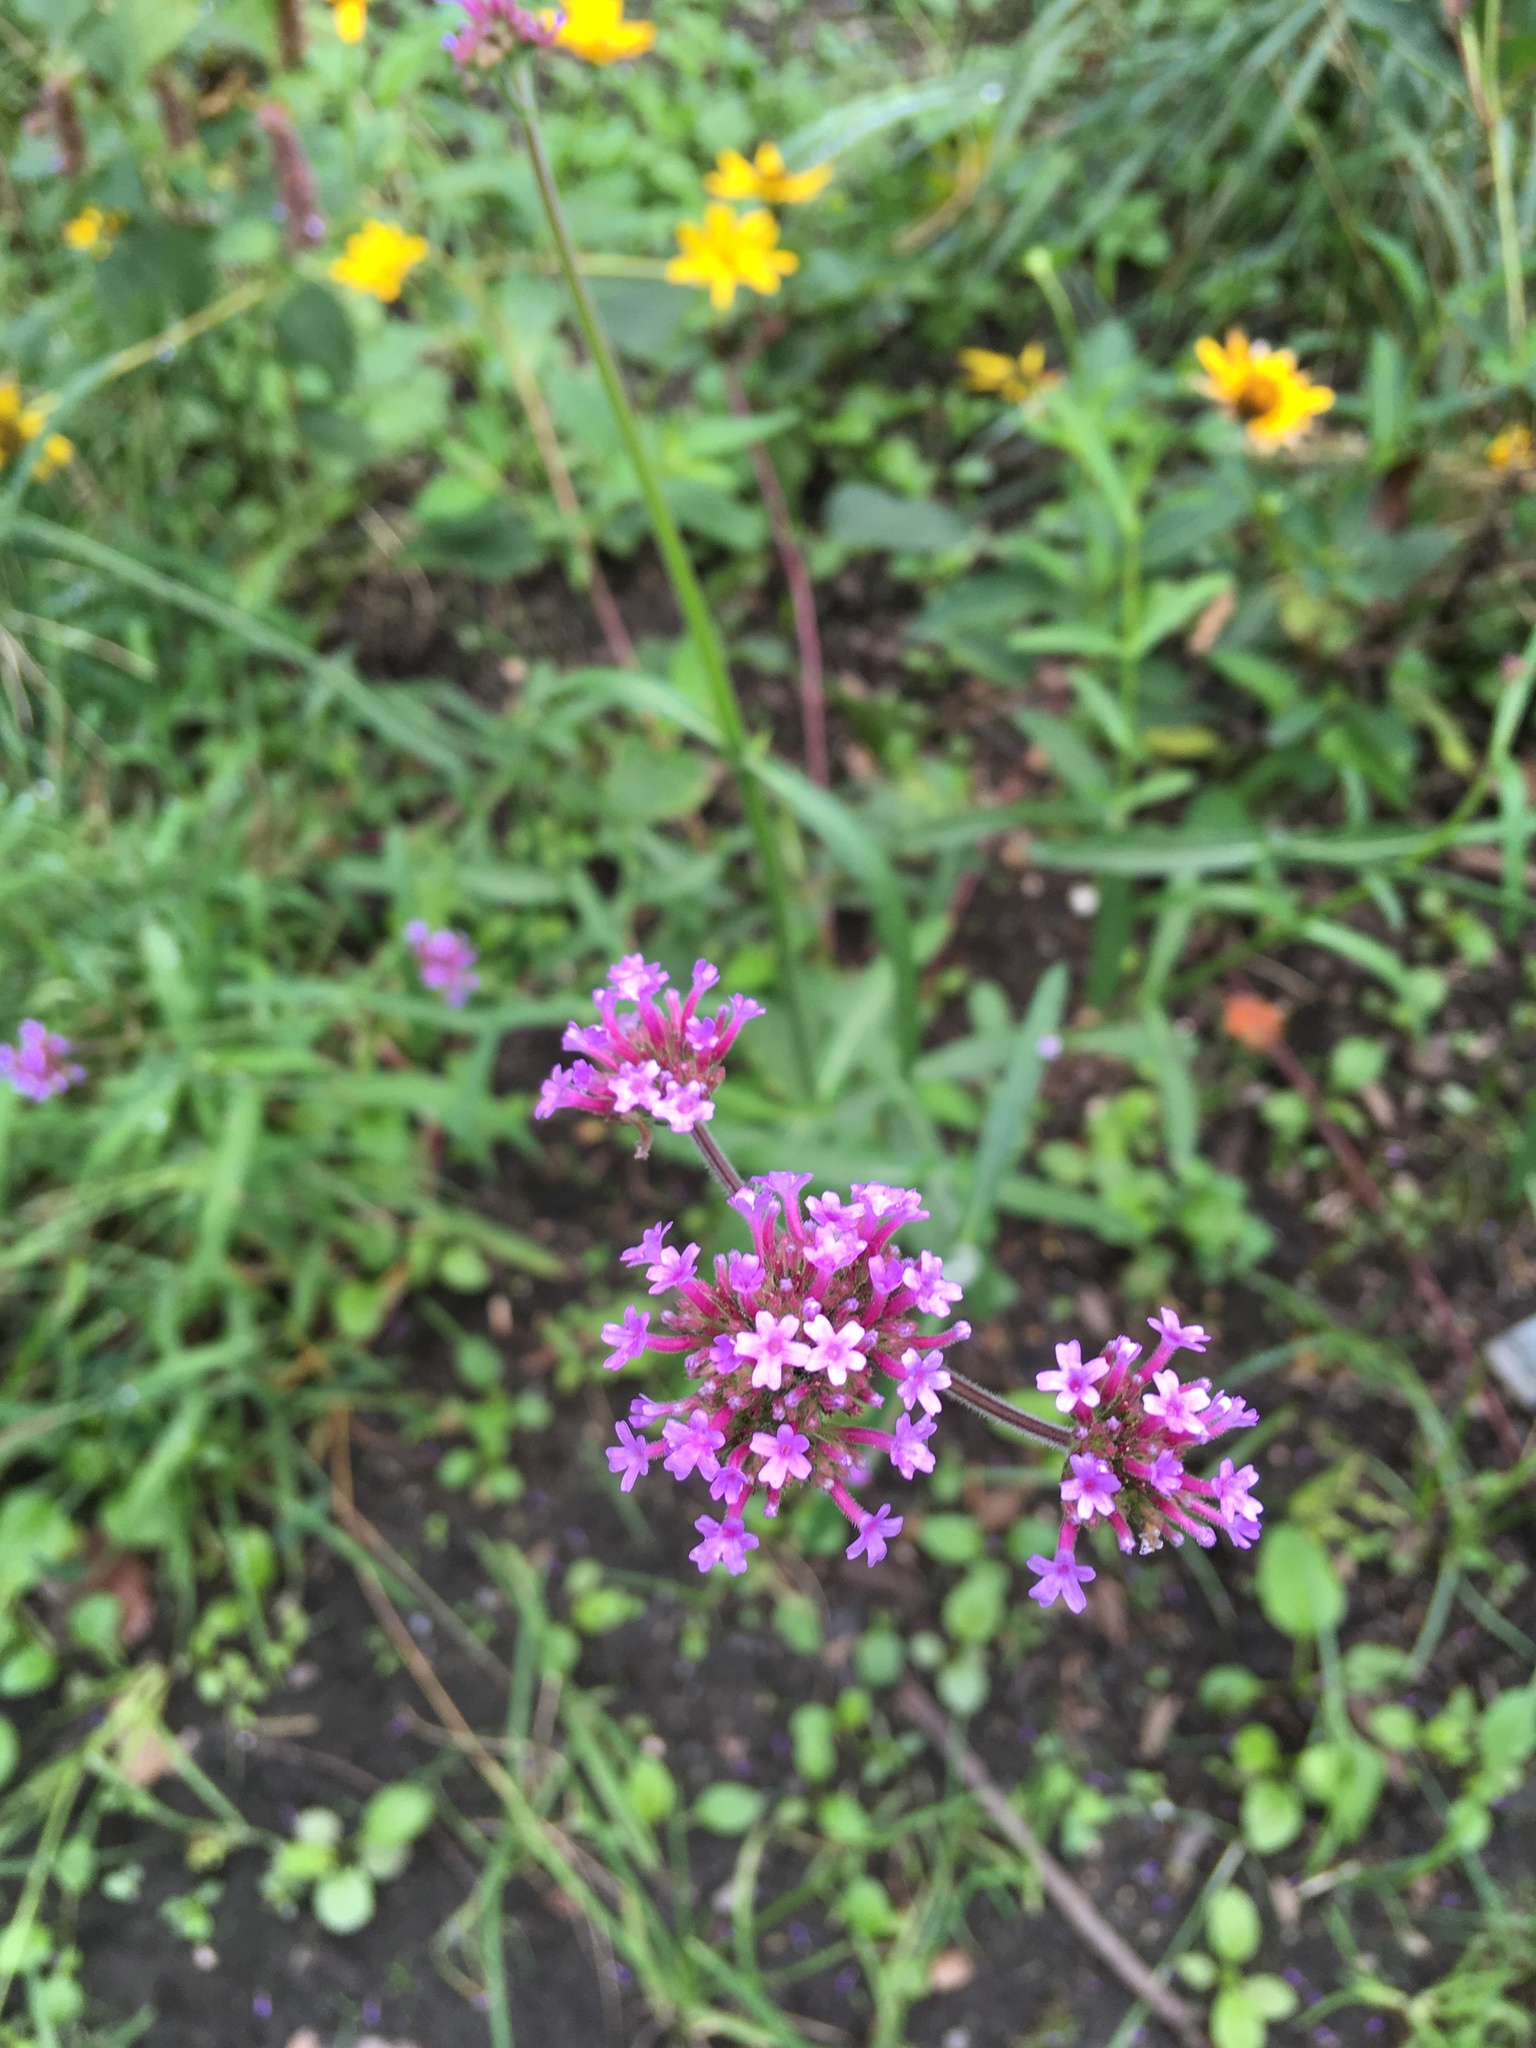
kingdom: Plantae
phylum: Tracheophyta
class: Magnoliopsida
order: Lamiales
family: Verbenaceae
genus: Verbena
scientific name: Verbena bonariensis
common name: Purpletop vervain
